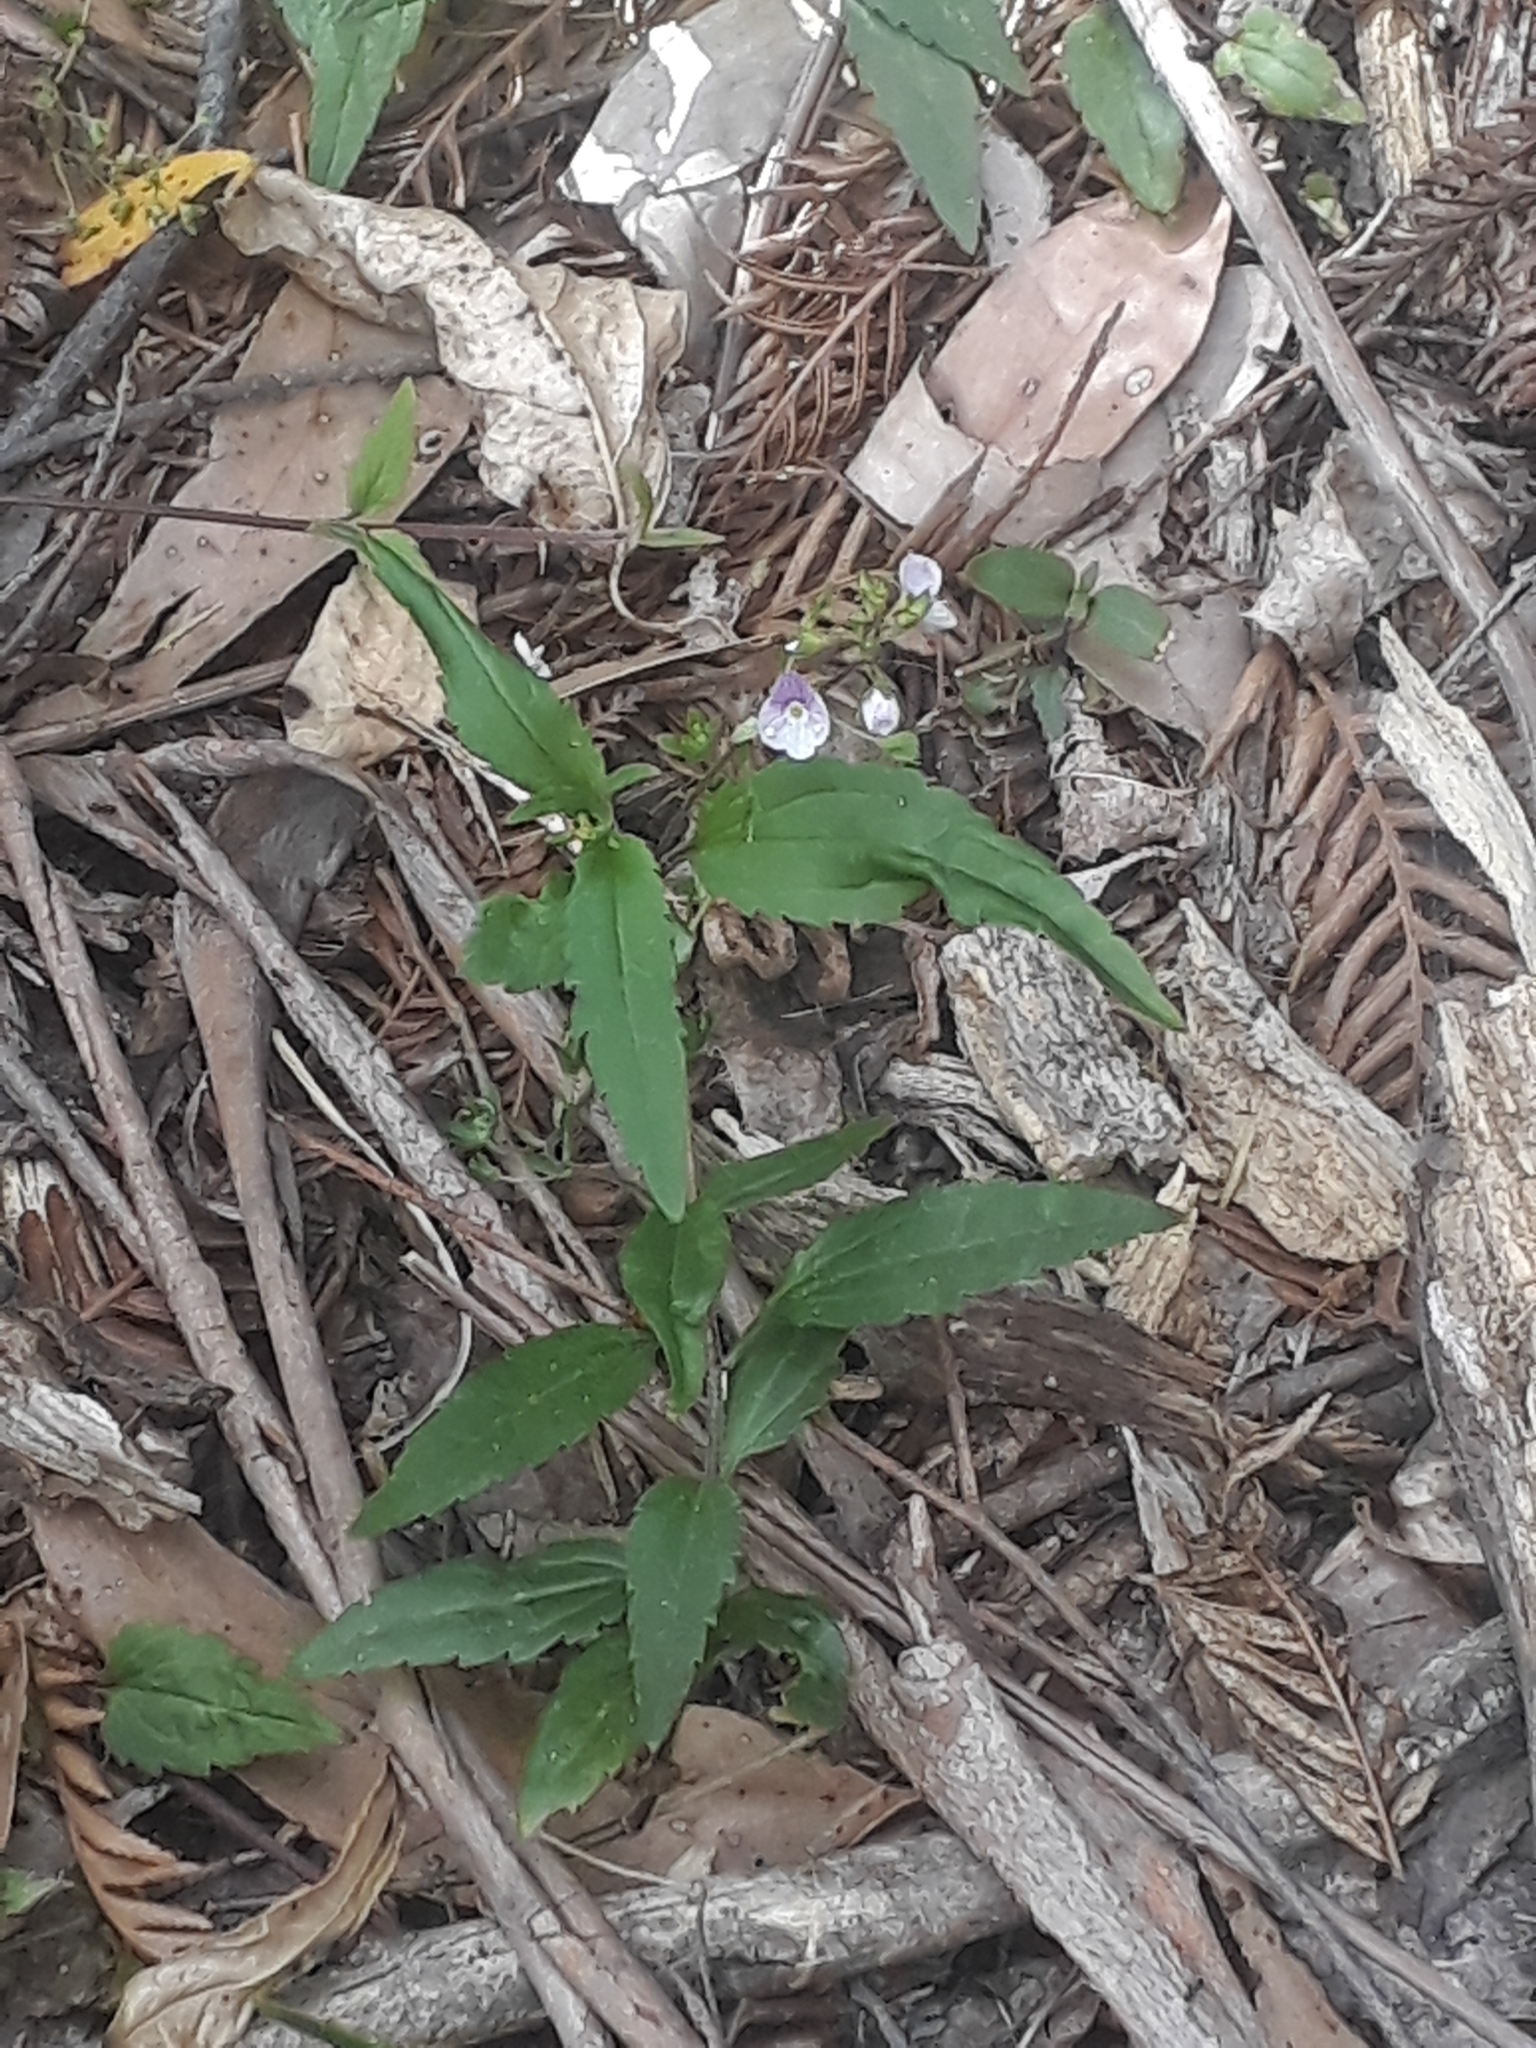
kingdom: Plantae
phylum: Tracheophyta
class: Magnoliopsida
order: Lamiales
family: Plantaginaceae
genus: Veronica
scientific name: Veronica notabilis
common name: Forest speedwell
